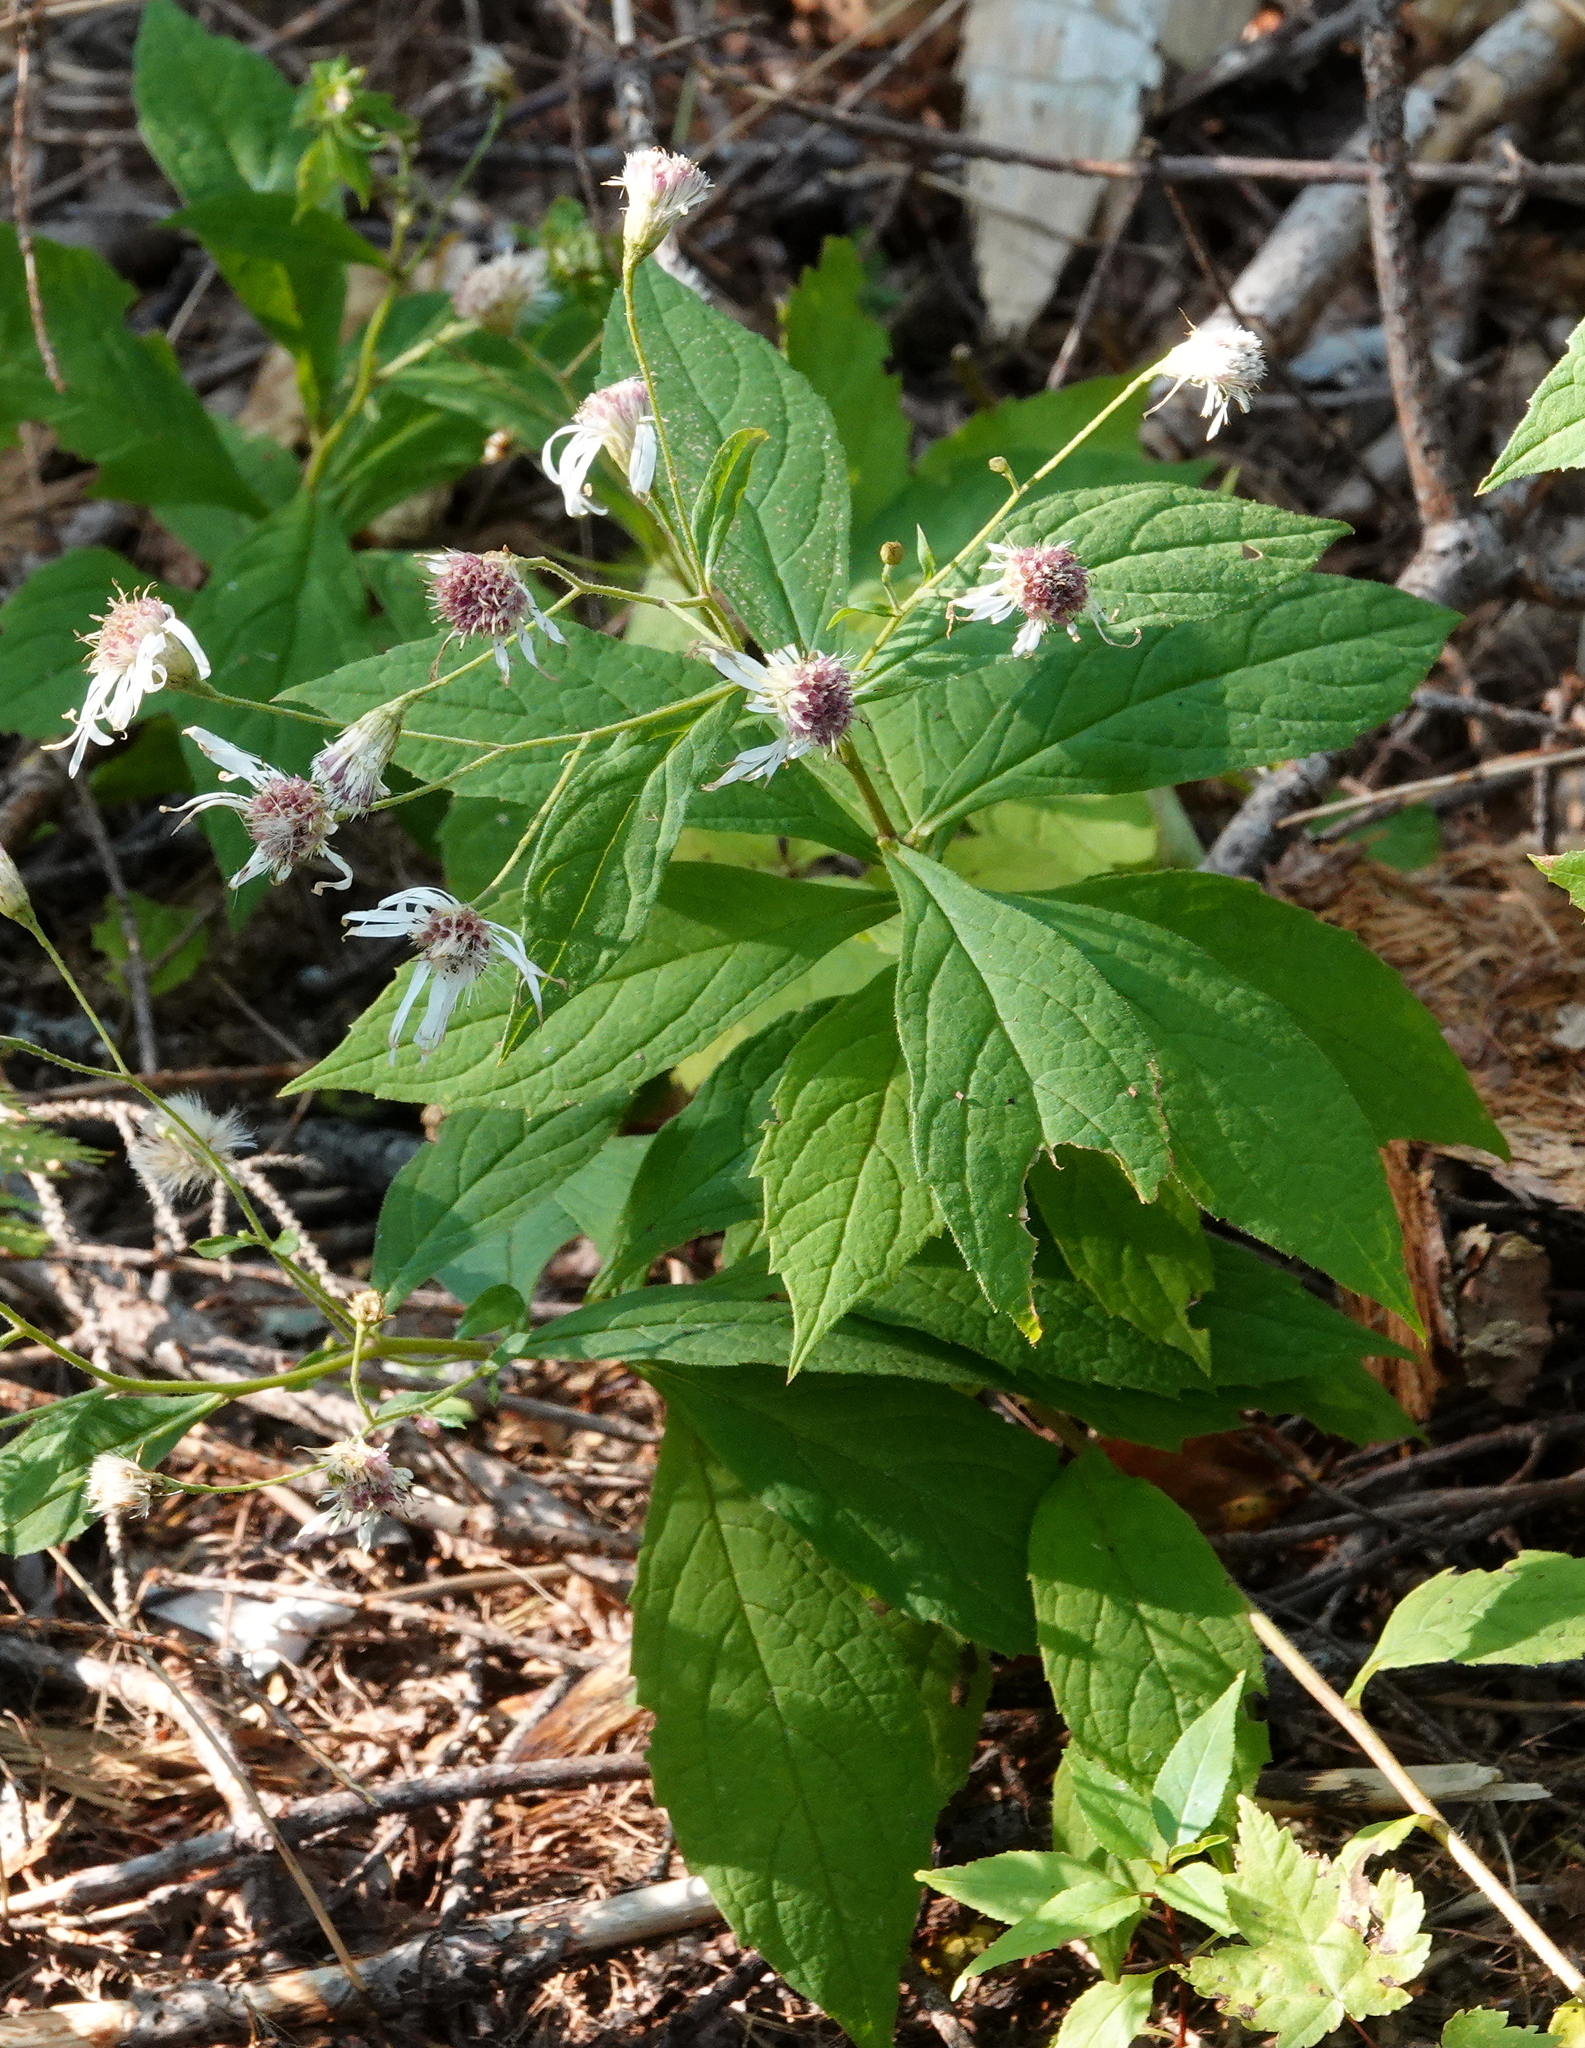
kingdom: Plantae
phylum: Tracheophyta
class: Magnoliopsida
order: Asterales
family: Asteraceae
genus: Oclemena
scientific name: Oclemena acuminata
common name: Mountain aster
